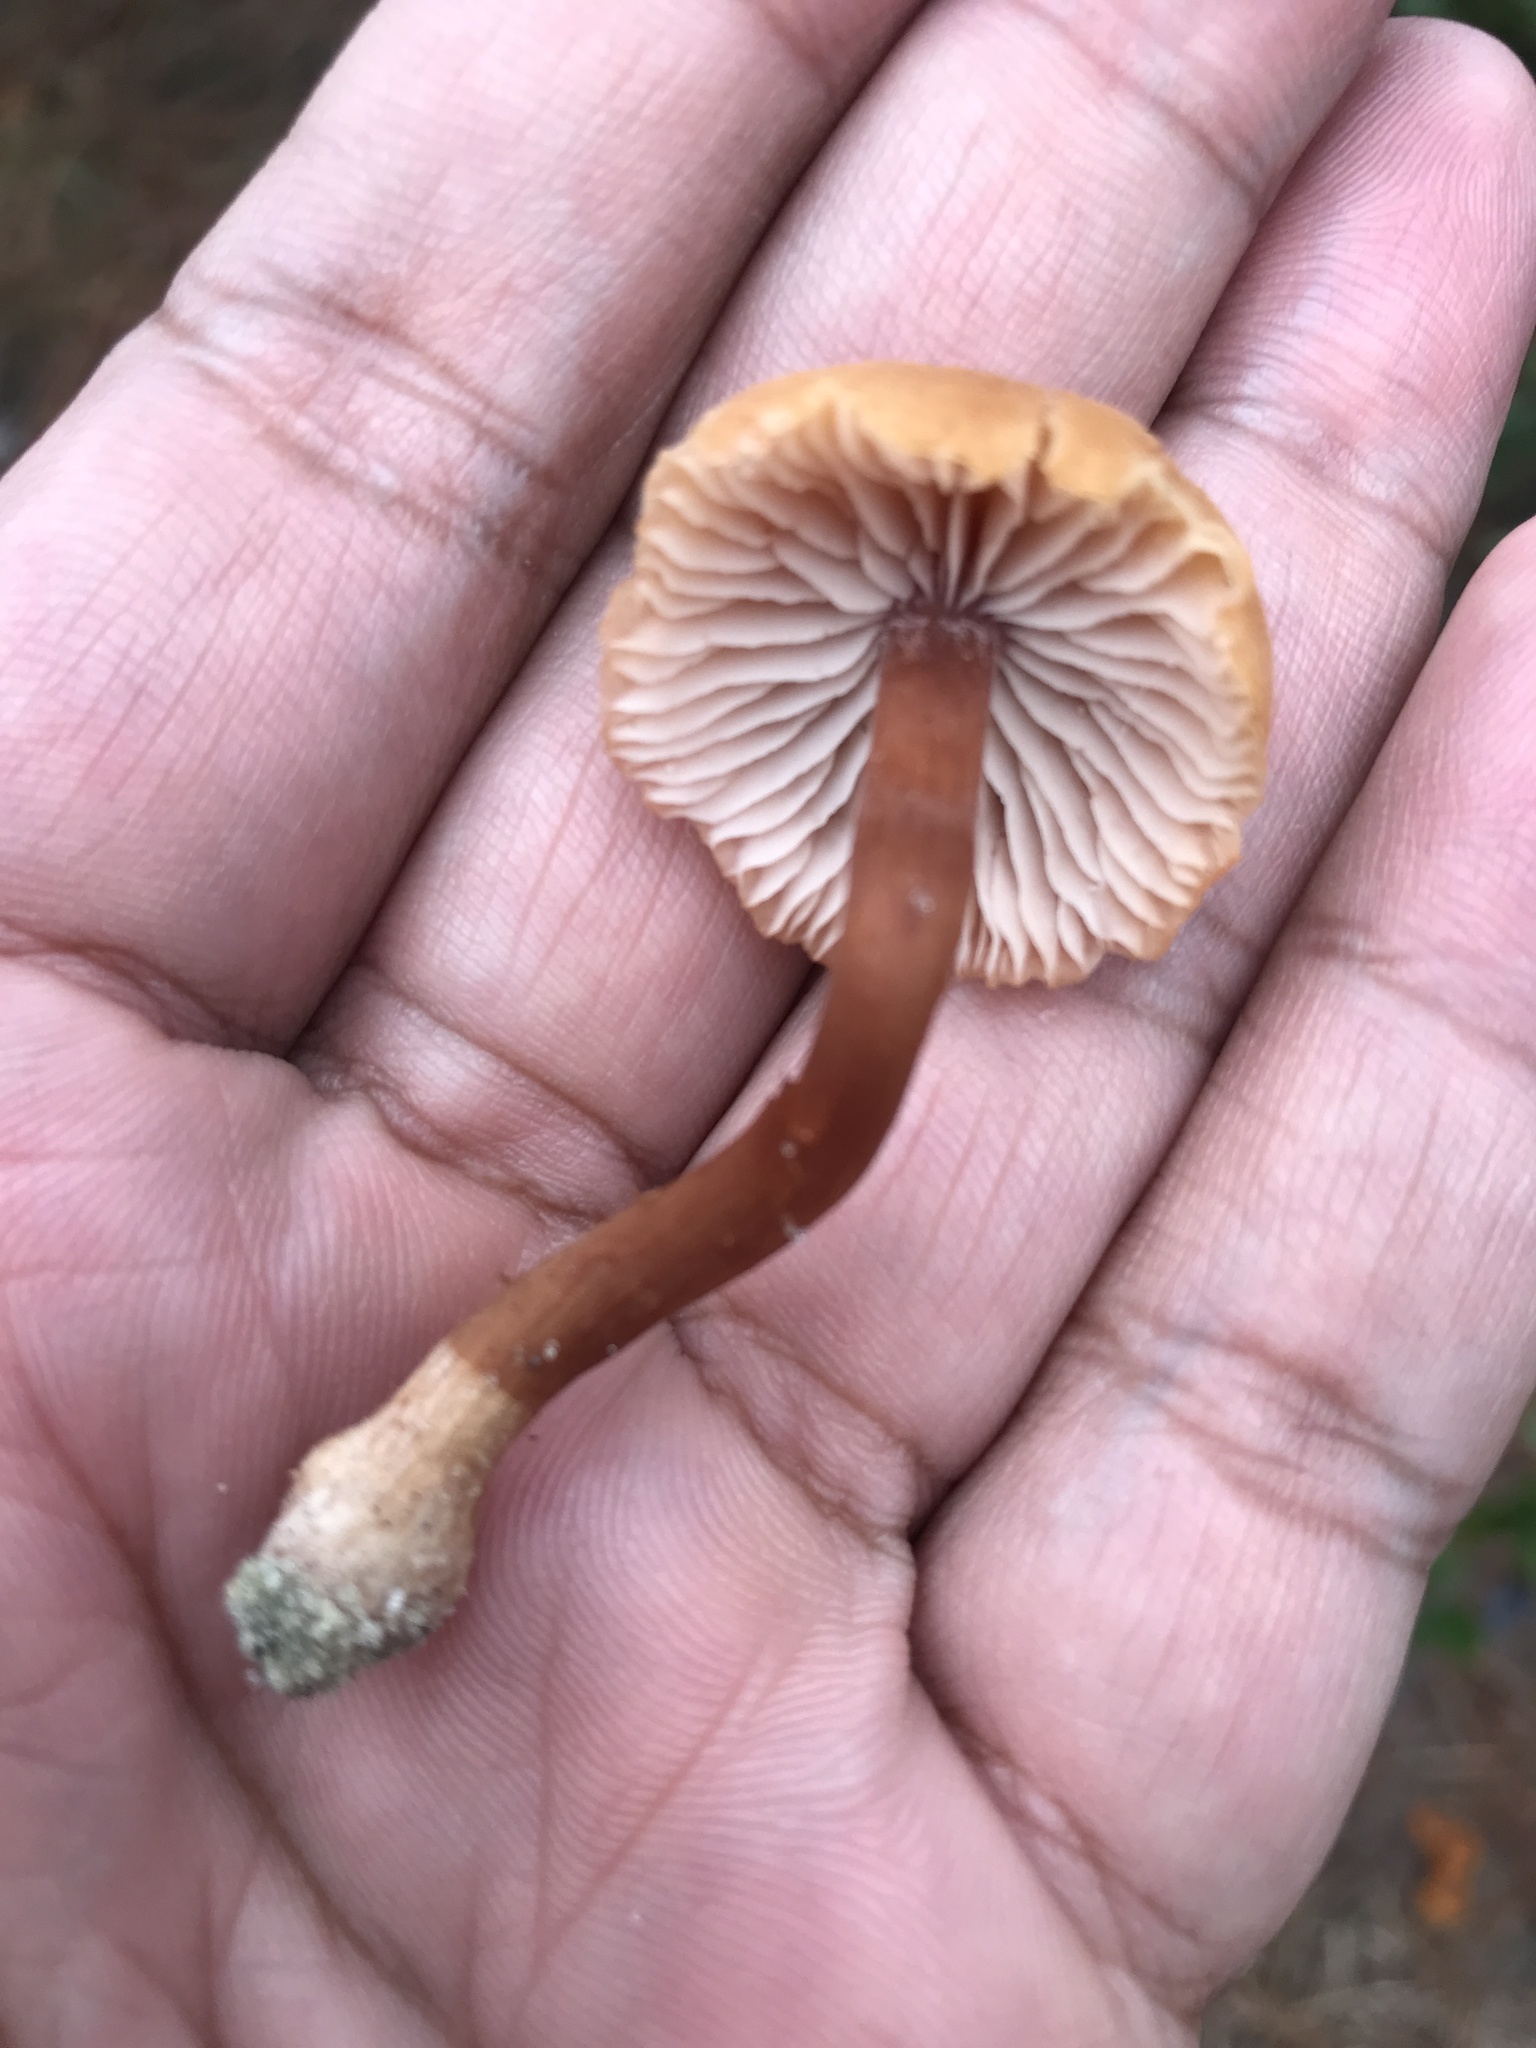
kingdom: Fungi
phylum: Basidiomycota
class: Agaricomycetes
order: Agaricales
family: Hydnangiaceae
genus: Laccaria
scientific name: Laccaria laccata
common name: Deceiver
